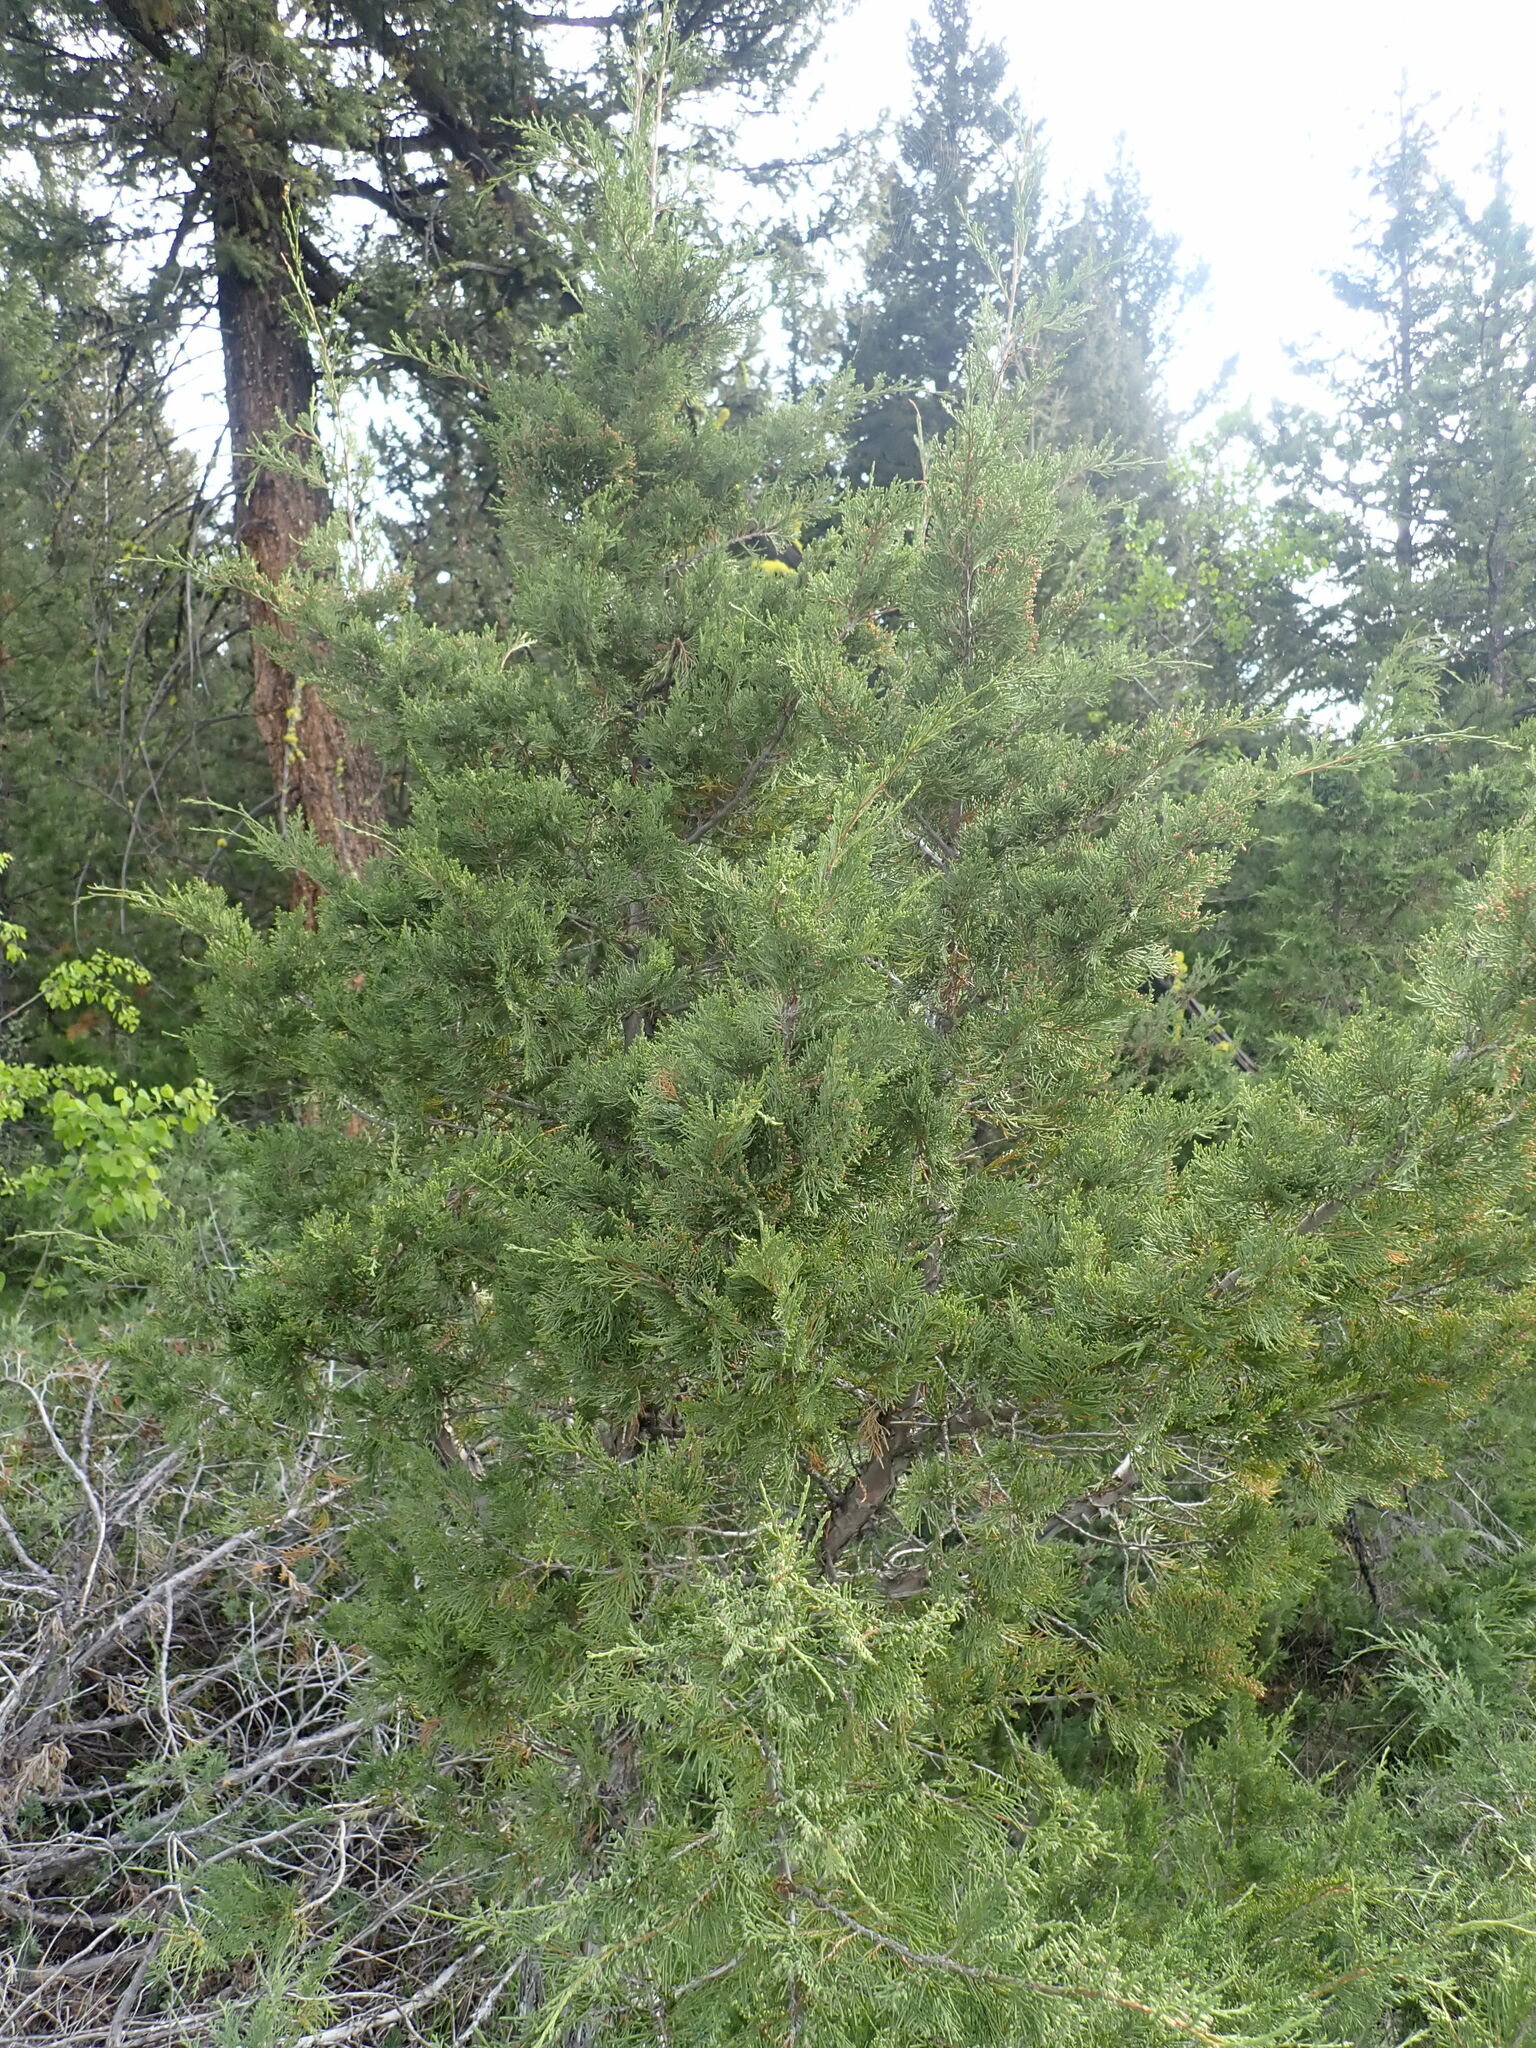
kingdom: Plantae
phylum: Tracheophyta
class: Pinopsida
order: Pinales
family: Cupressaceae
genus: Juniperus
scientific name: Juniperus scopulorum
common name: Rocky mountain juniper
